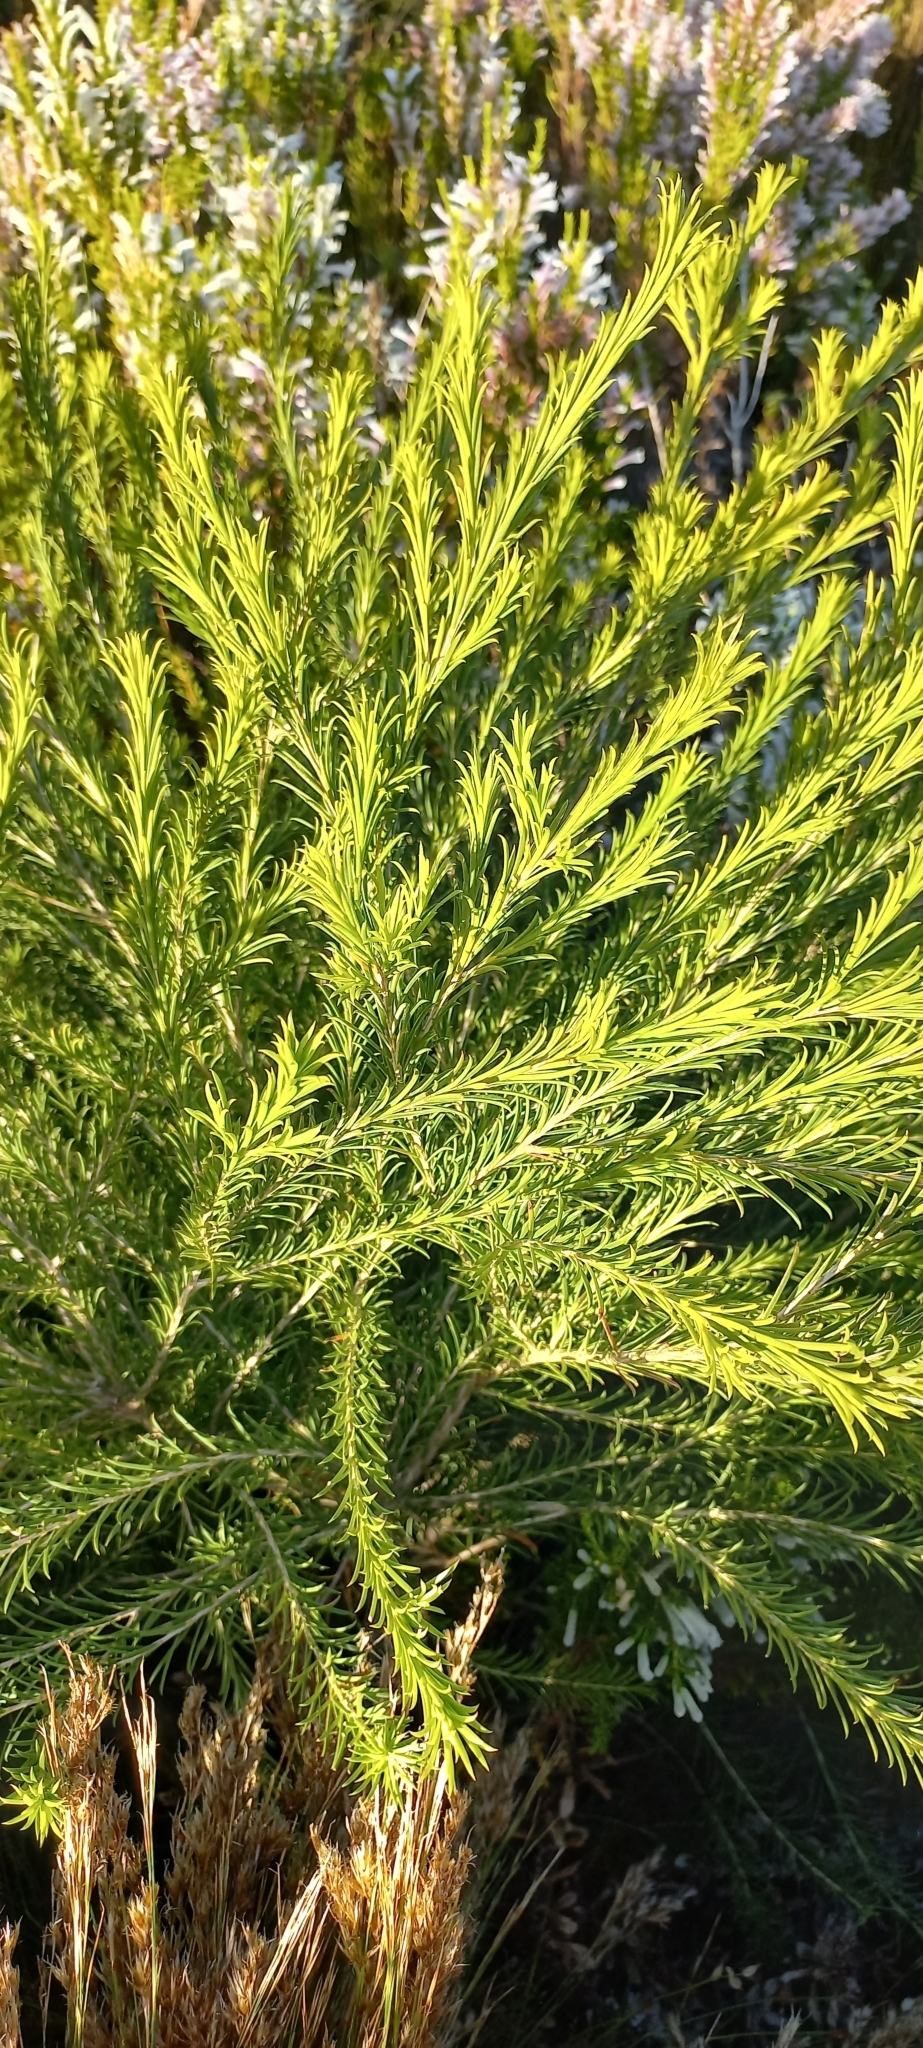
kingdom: Plantae
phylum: Tracheophyta
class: Magnoliopsida
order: Proteales
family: Proteaceae
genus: Banksia
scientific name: Banksia ericifolia
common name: Heath-leaf banksia
